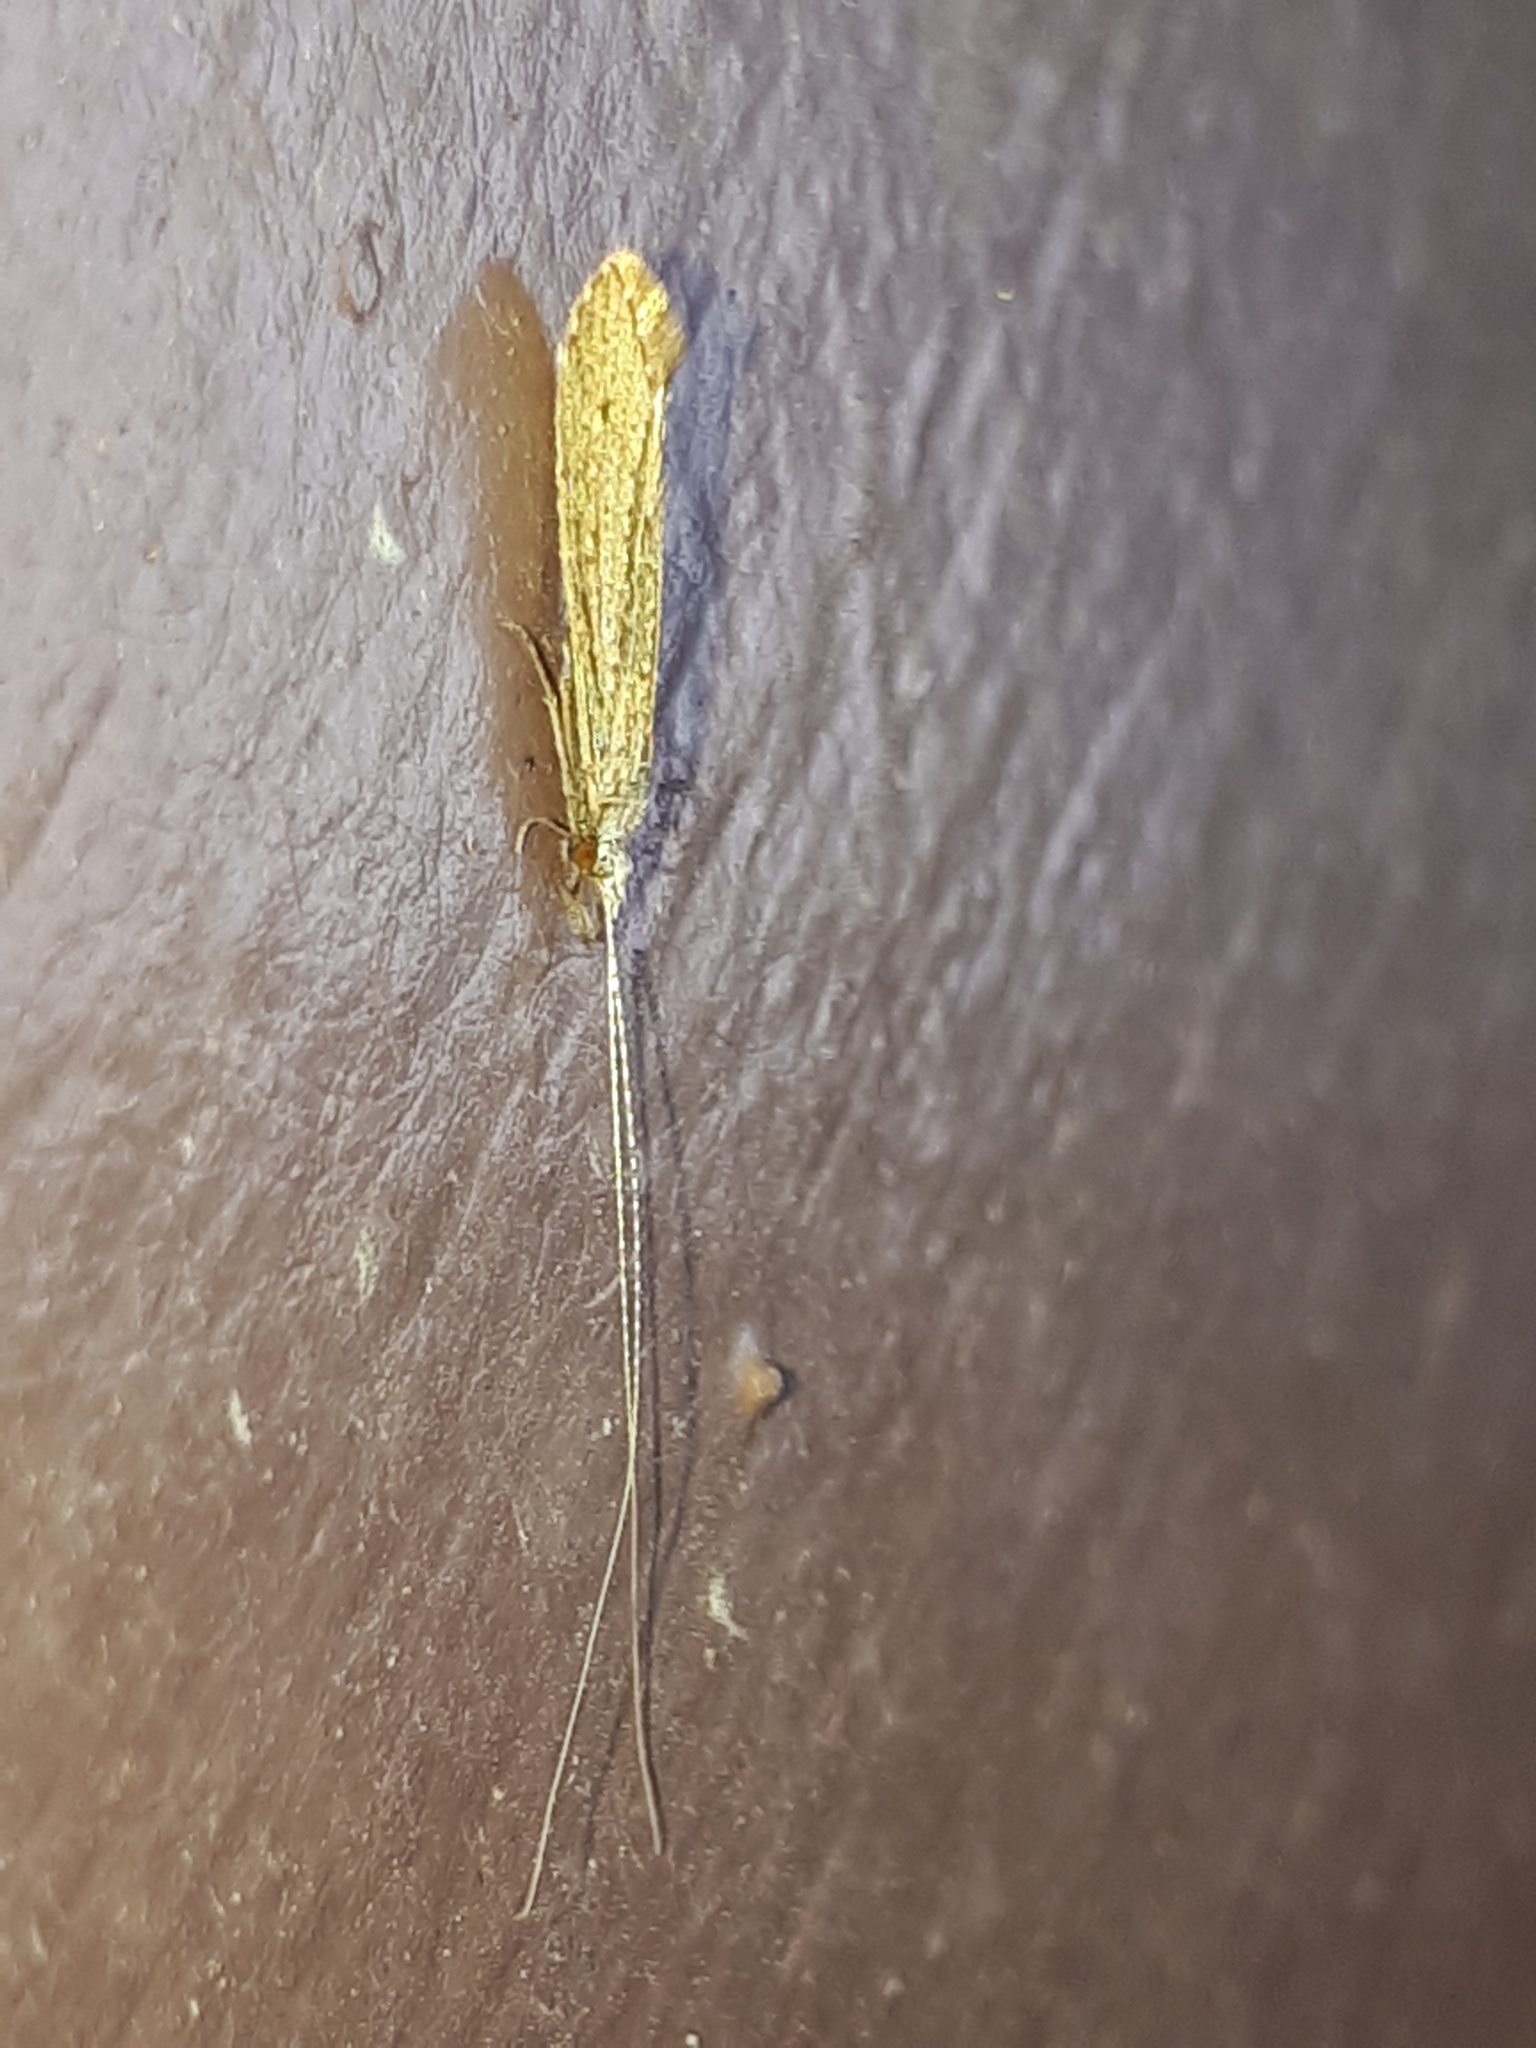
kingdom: Animalia
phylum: Arthropoda
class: Insecta
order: Trichoptera
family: Leptoceridae
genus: Leptocerus
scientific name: Leptocerus tineiformis
